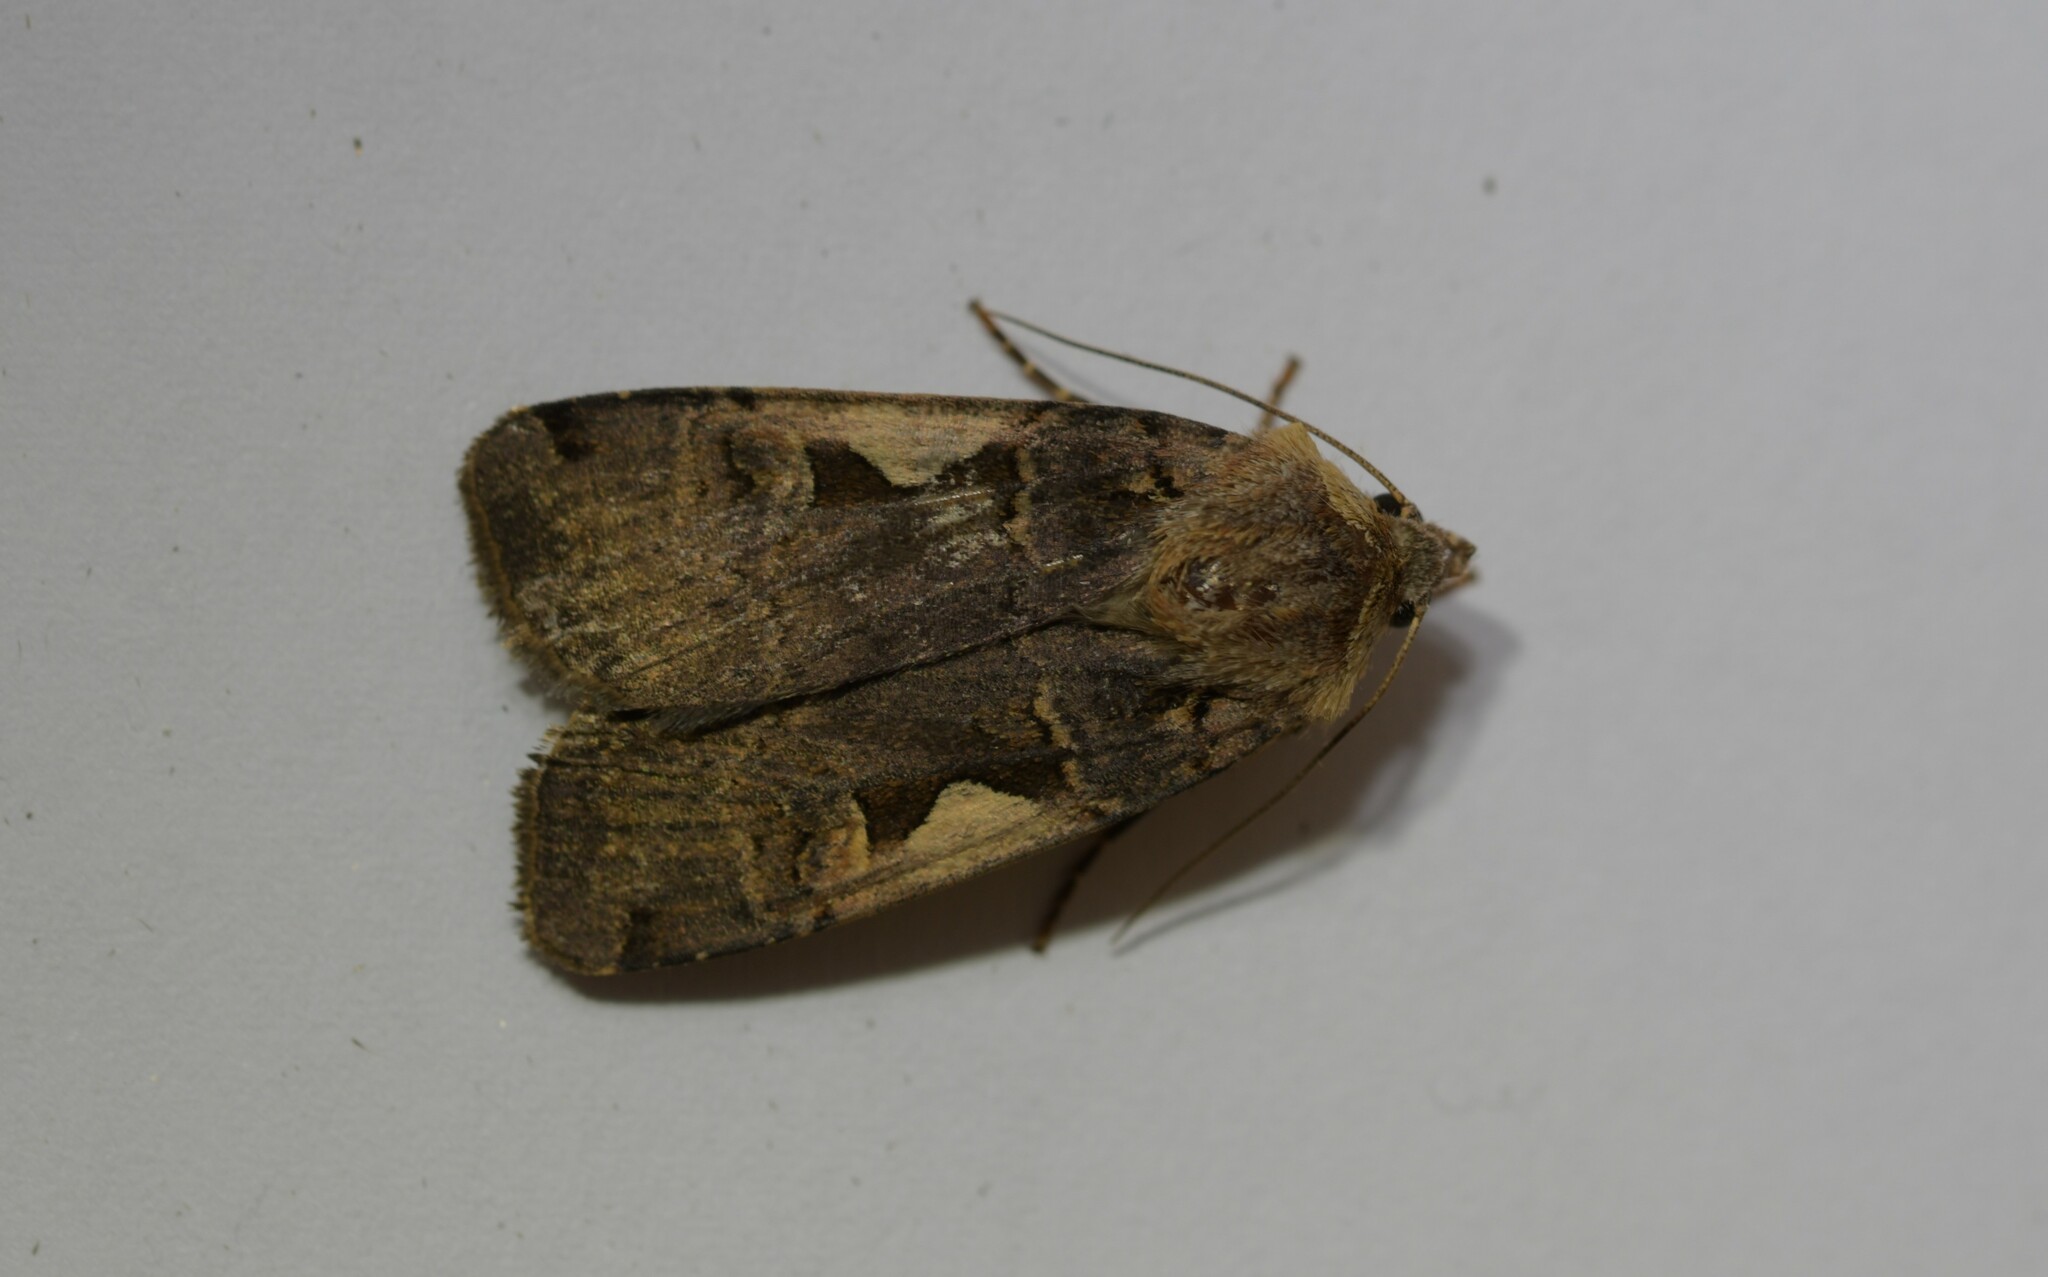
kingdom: Animalia
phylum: Arthropoda
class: Insecta
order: Lepidoptera
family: Noctuidae
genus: Xestia
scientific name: Xestia c-nigrum
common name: Setaceous hebrew character
